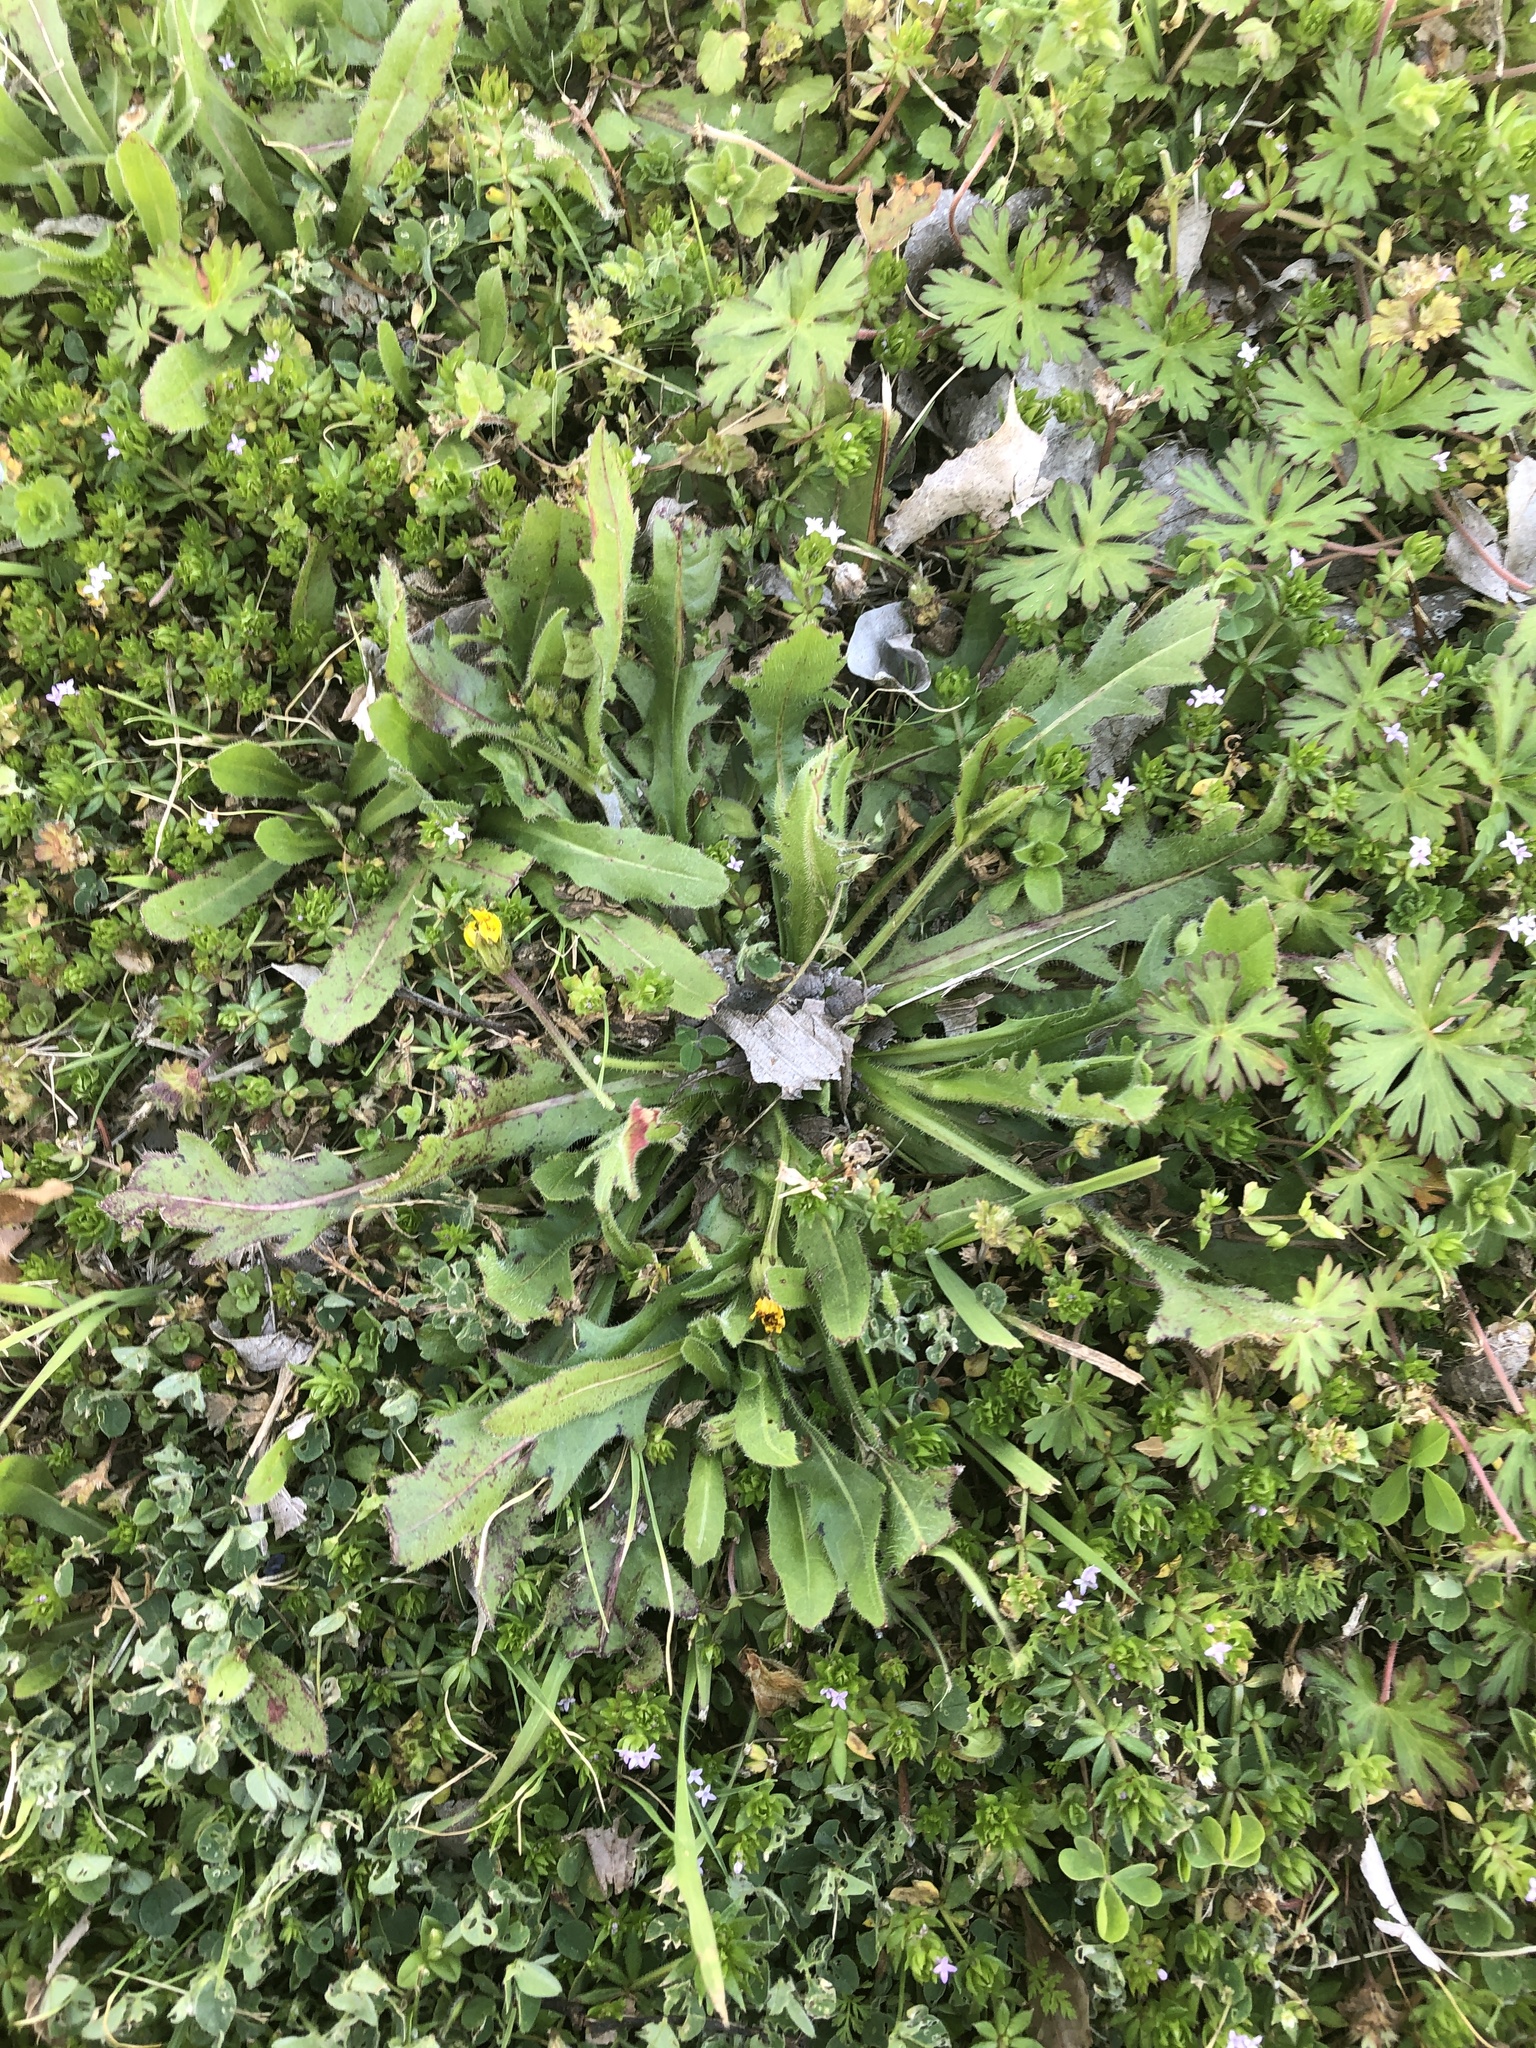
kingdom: Plantae
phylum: Tracheophyta
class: Magnoliopsida
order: Asterales
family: Asteraceae
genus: Hedypnois
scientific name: Hedypnois rhagadioloides
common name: Cretan weed
